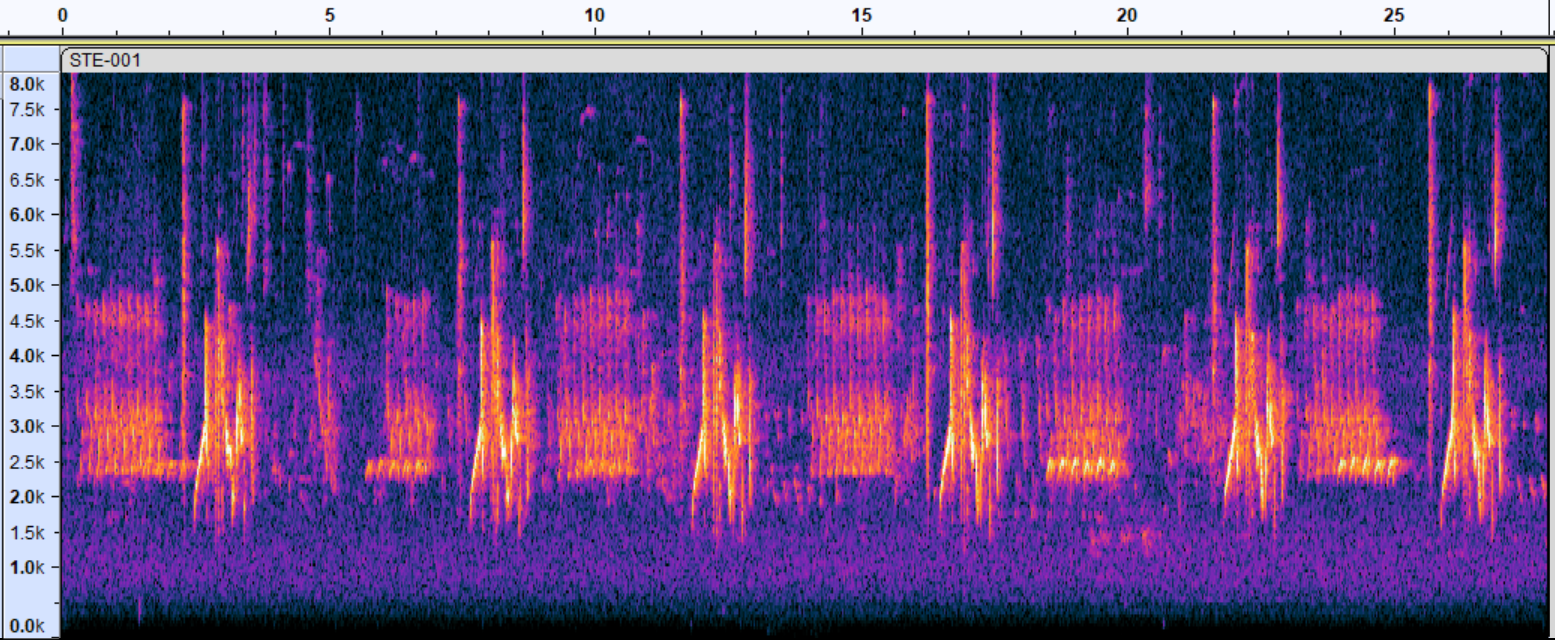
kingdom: Animalia
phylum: Chordata
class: Aves
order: Passeriformes
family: Vireonidae
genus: Vireo
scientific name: Vireo griseus
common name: White-eyed vireo
